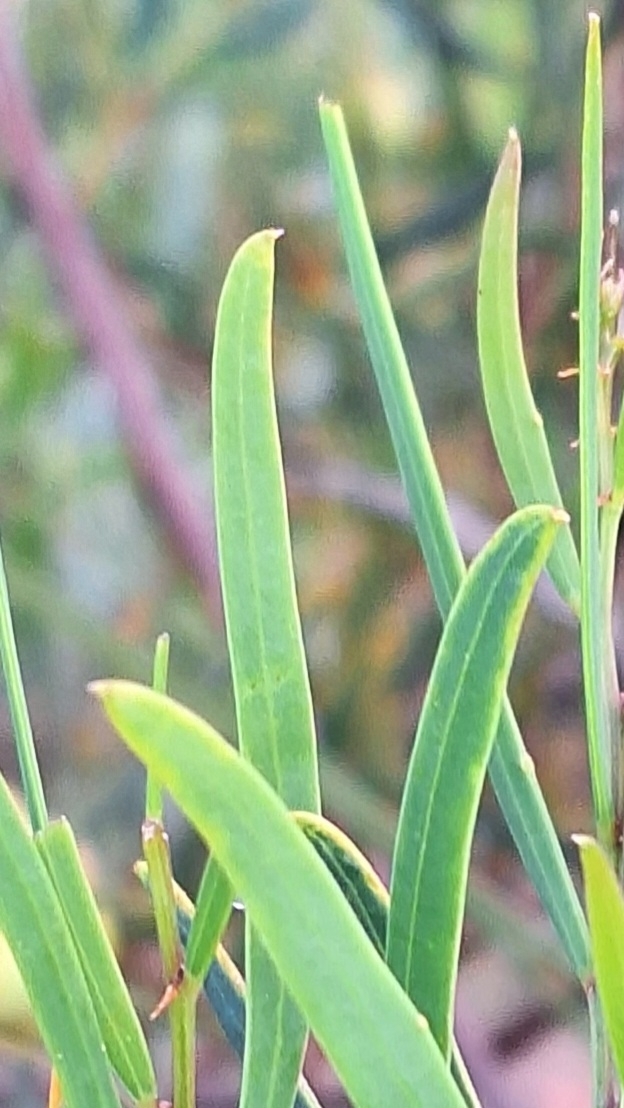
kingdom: Plantae
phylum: Tracheophyta
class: Magnoliopsida
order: Fabales
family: Fabaceae
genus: Acacia
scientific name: Acacia ligulata
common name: Dune wattle
